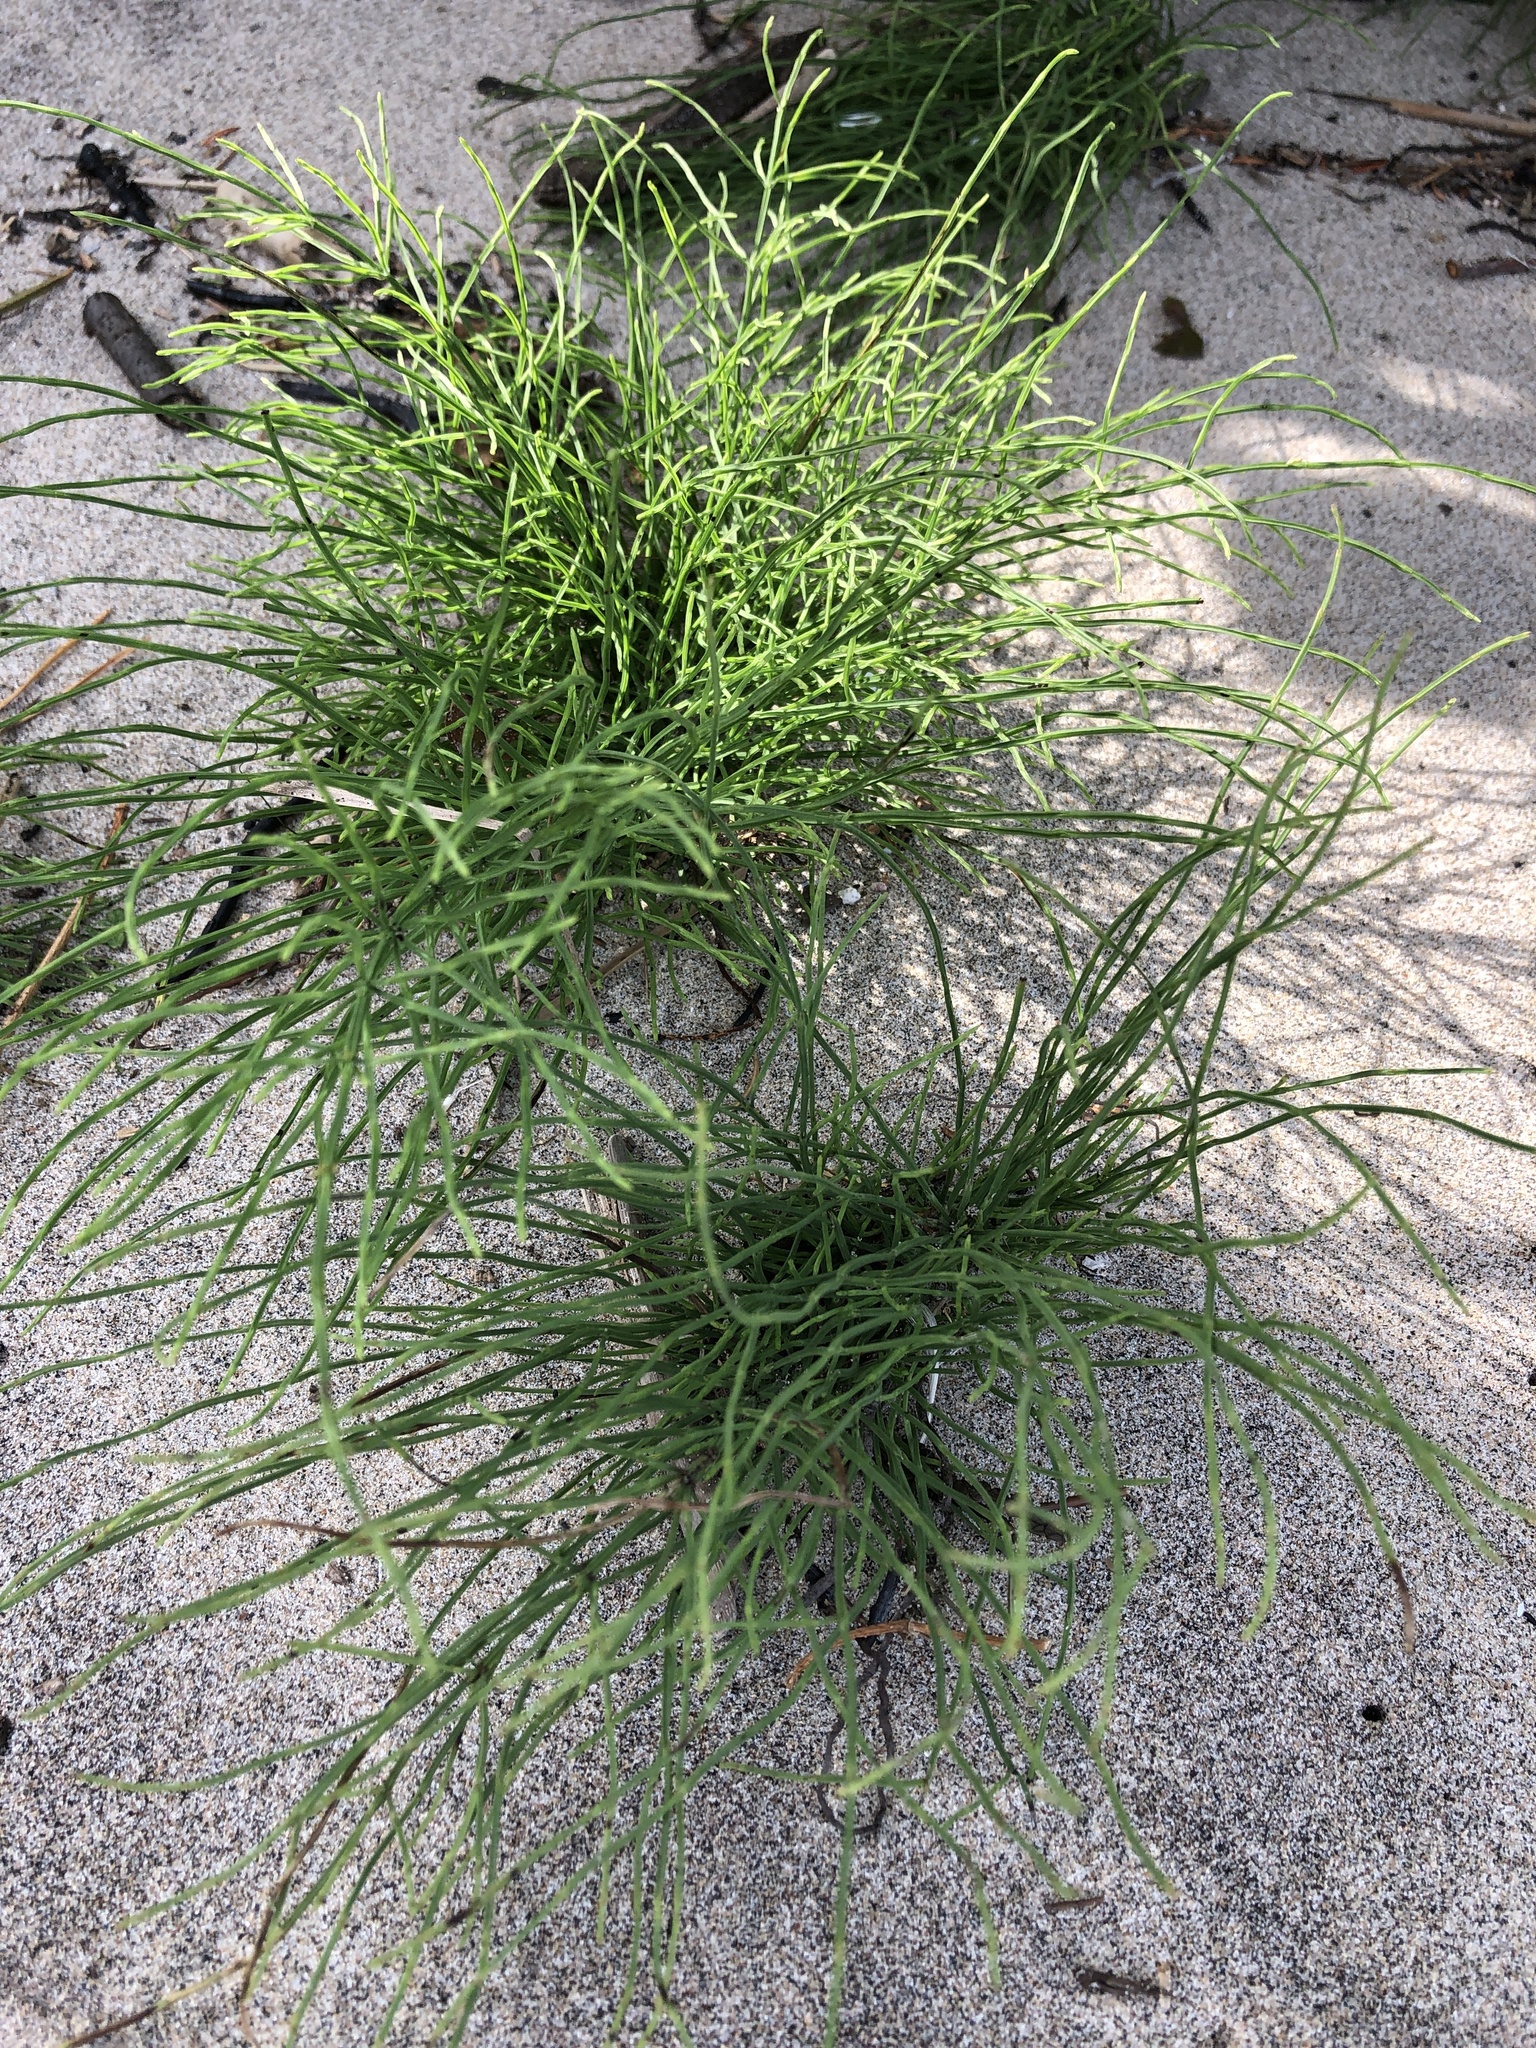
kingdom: Plantae
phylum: Tracheophyta
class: Polypodiopsida
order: Equisetales
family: Equisetaceae
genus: Equisetum
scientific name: Equisetum arvense
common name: Field horsetail
